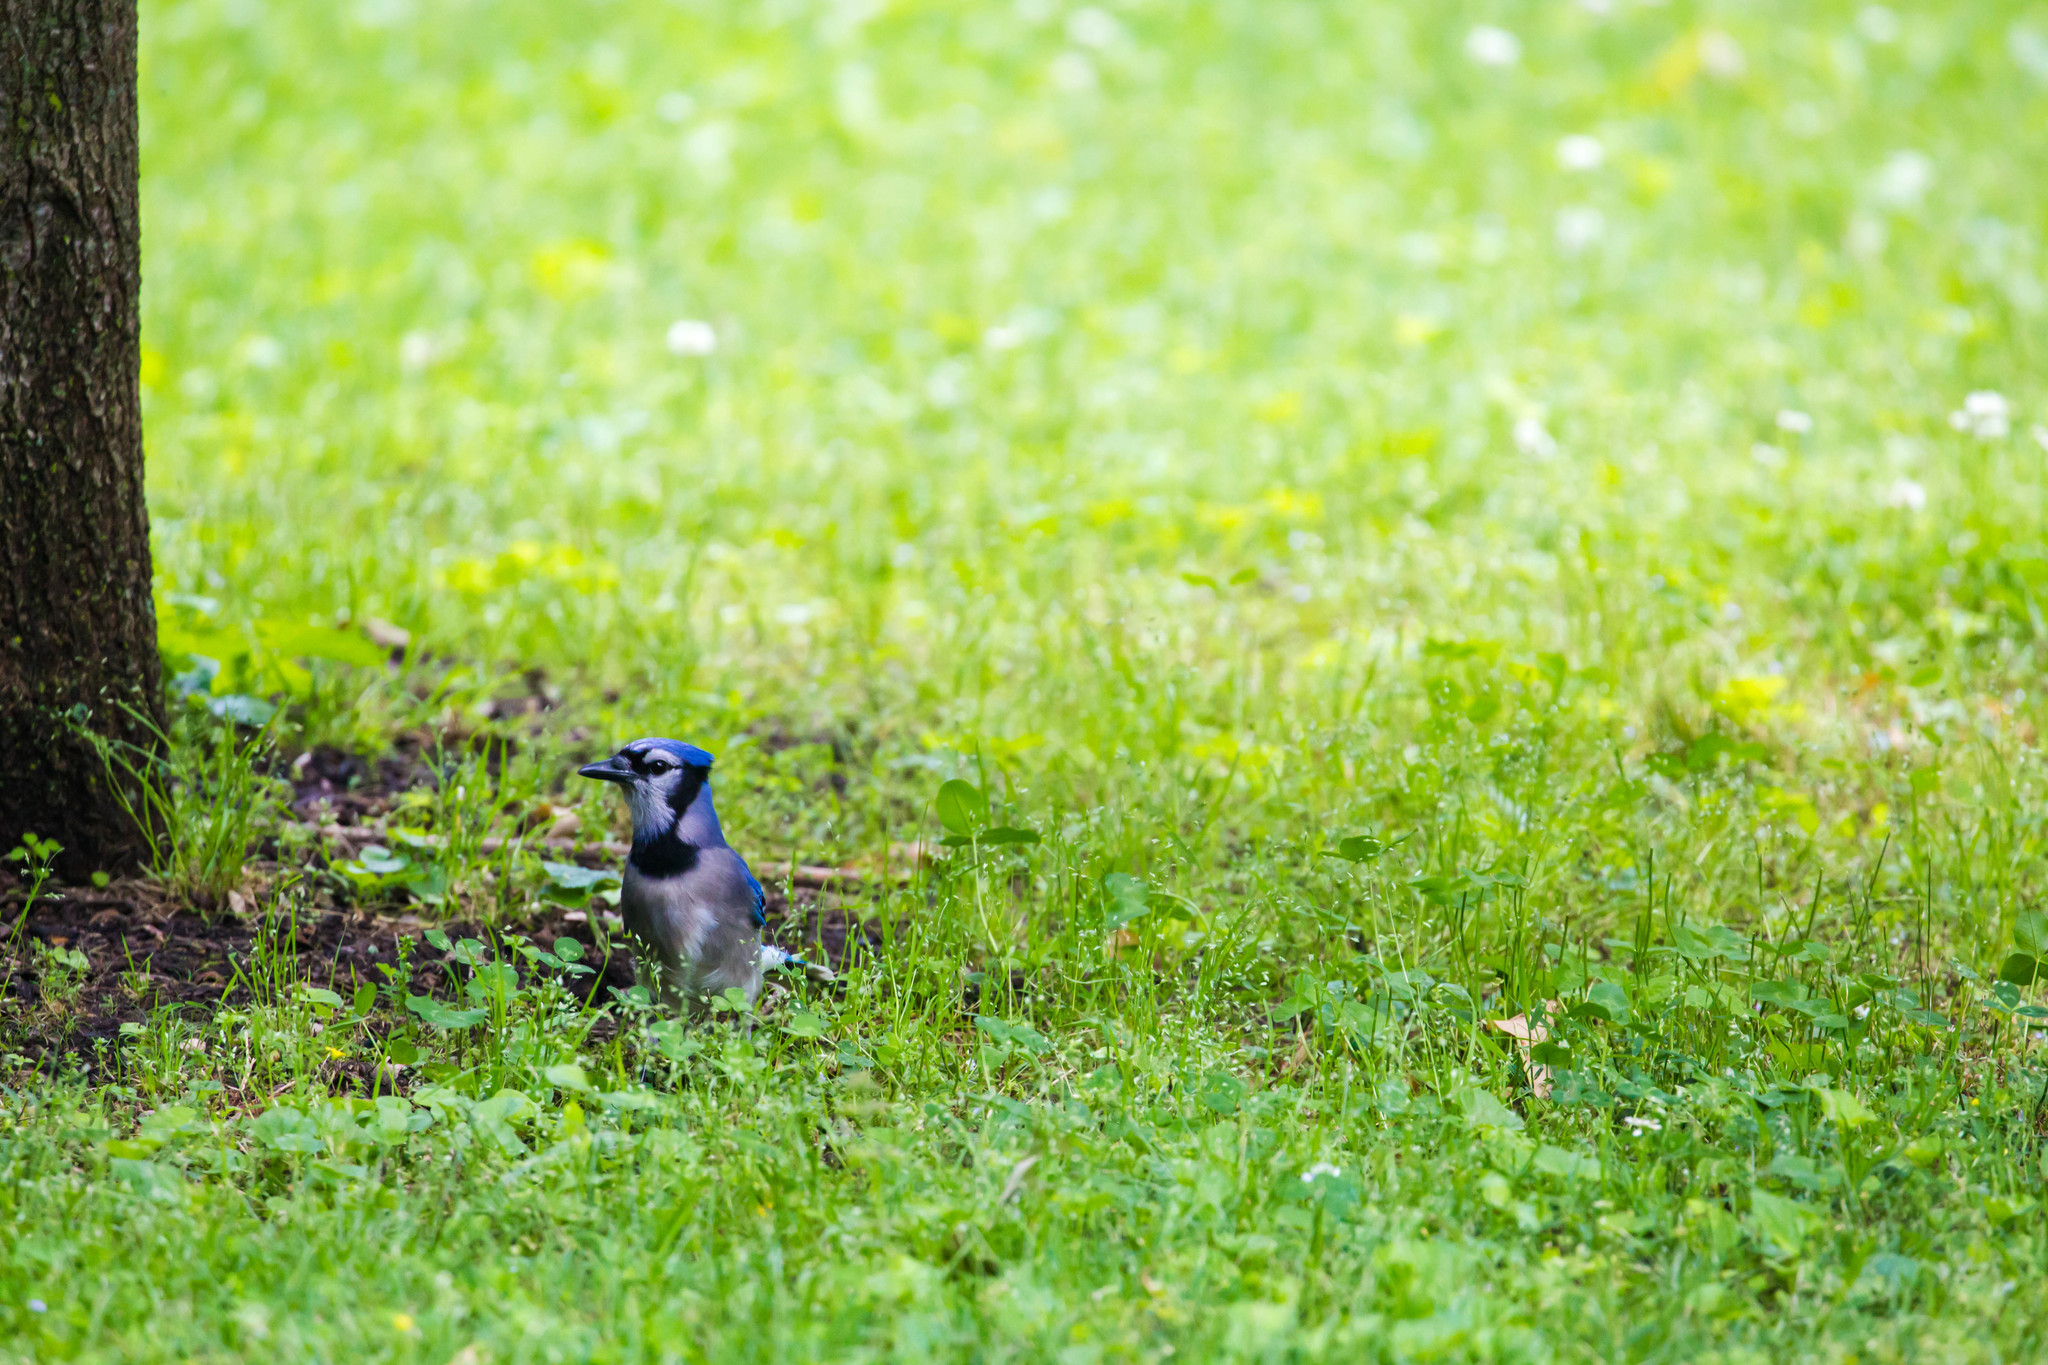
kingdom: Animalia
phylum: Chordata
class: Aves
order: Passeriformes
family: Corvidae
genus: Cyanocitta
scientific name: Cyanocitta cristata
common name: Blue jay
